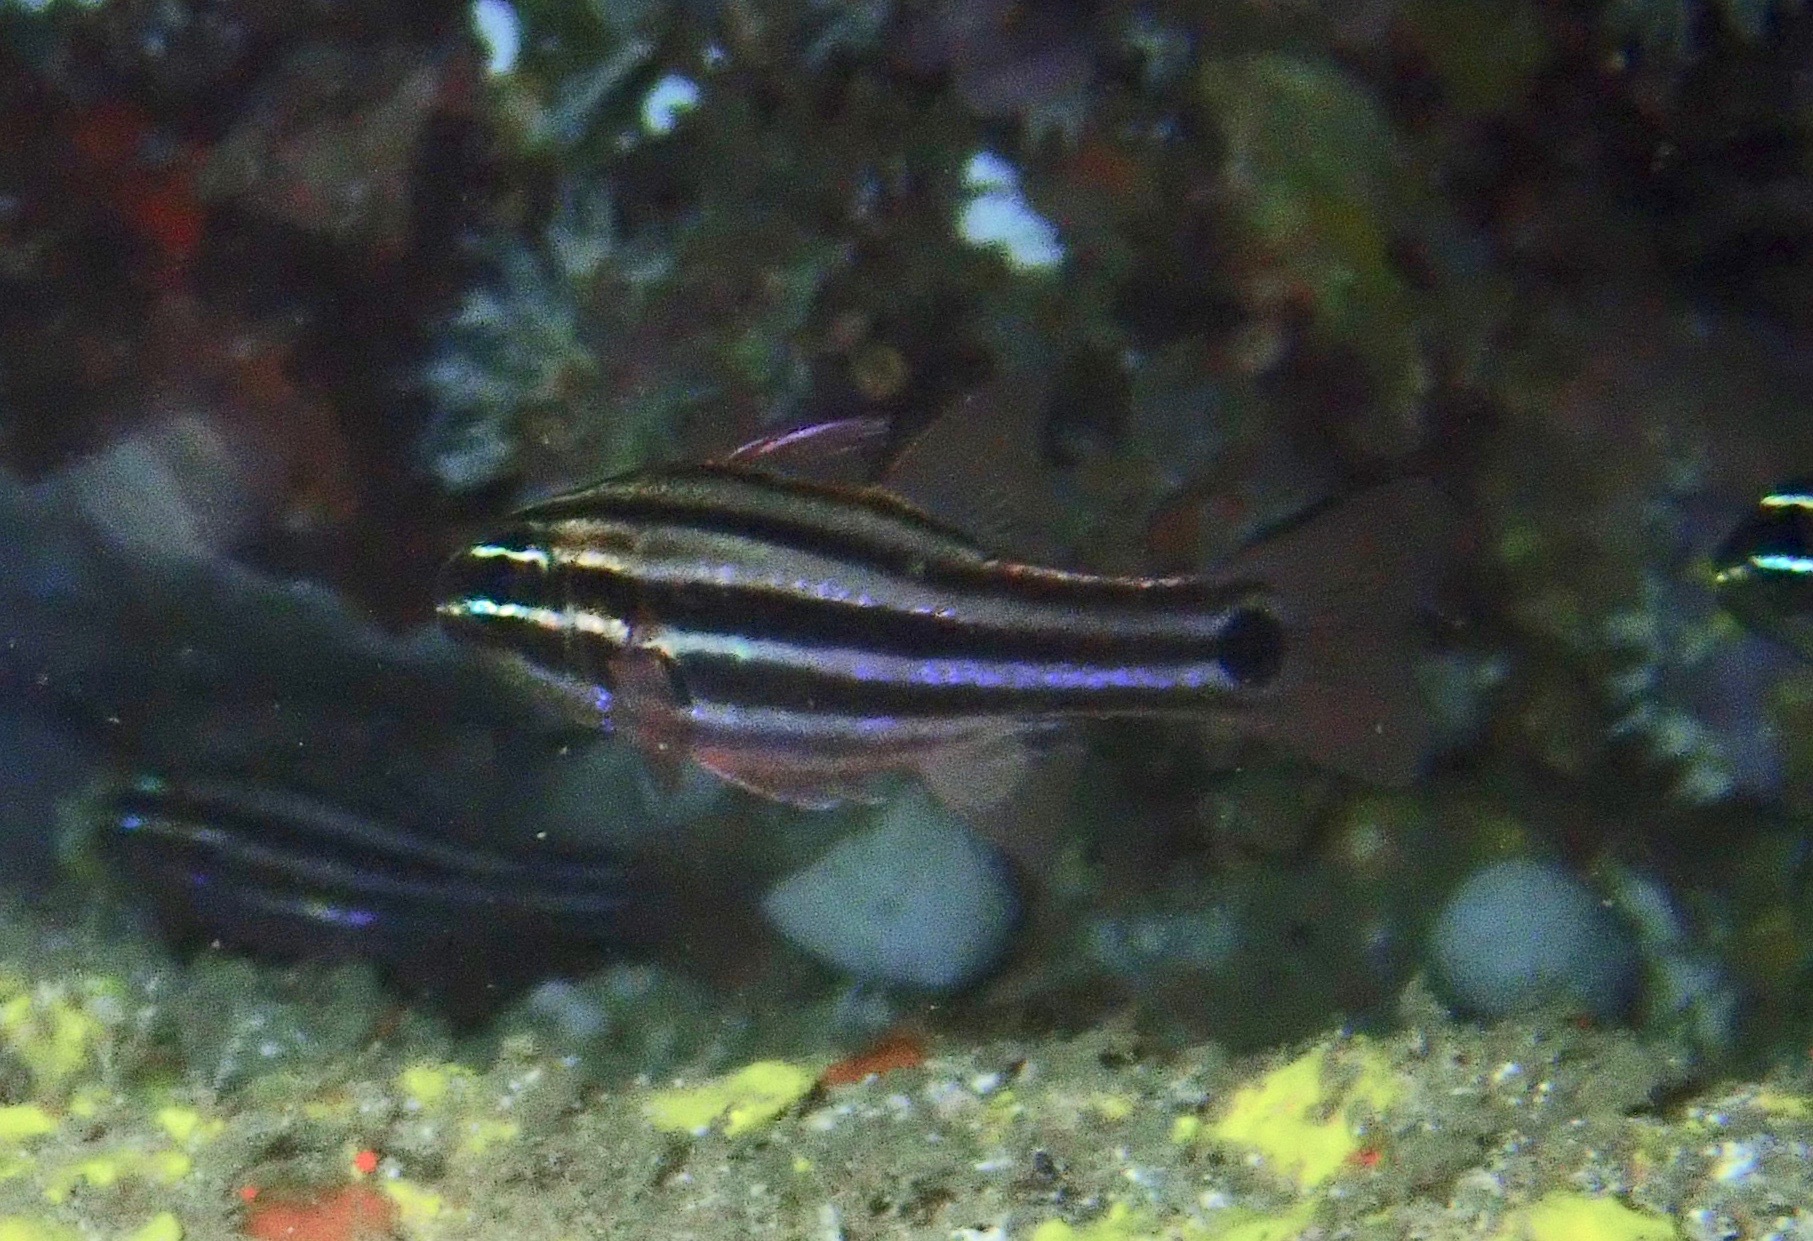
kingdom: Animalia
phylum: Chordata
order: Perciformes
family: Apogonidae
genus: Ostorhinchus
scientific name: Ostorhinchus cookii
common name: Cook's cardinalfish
